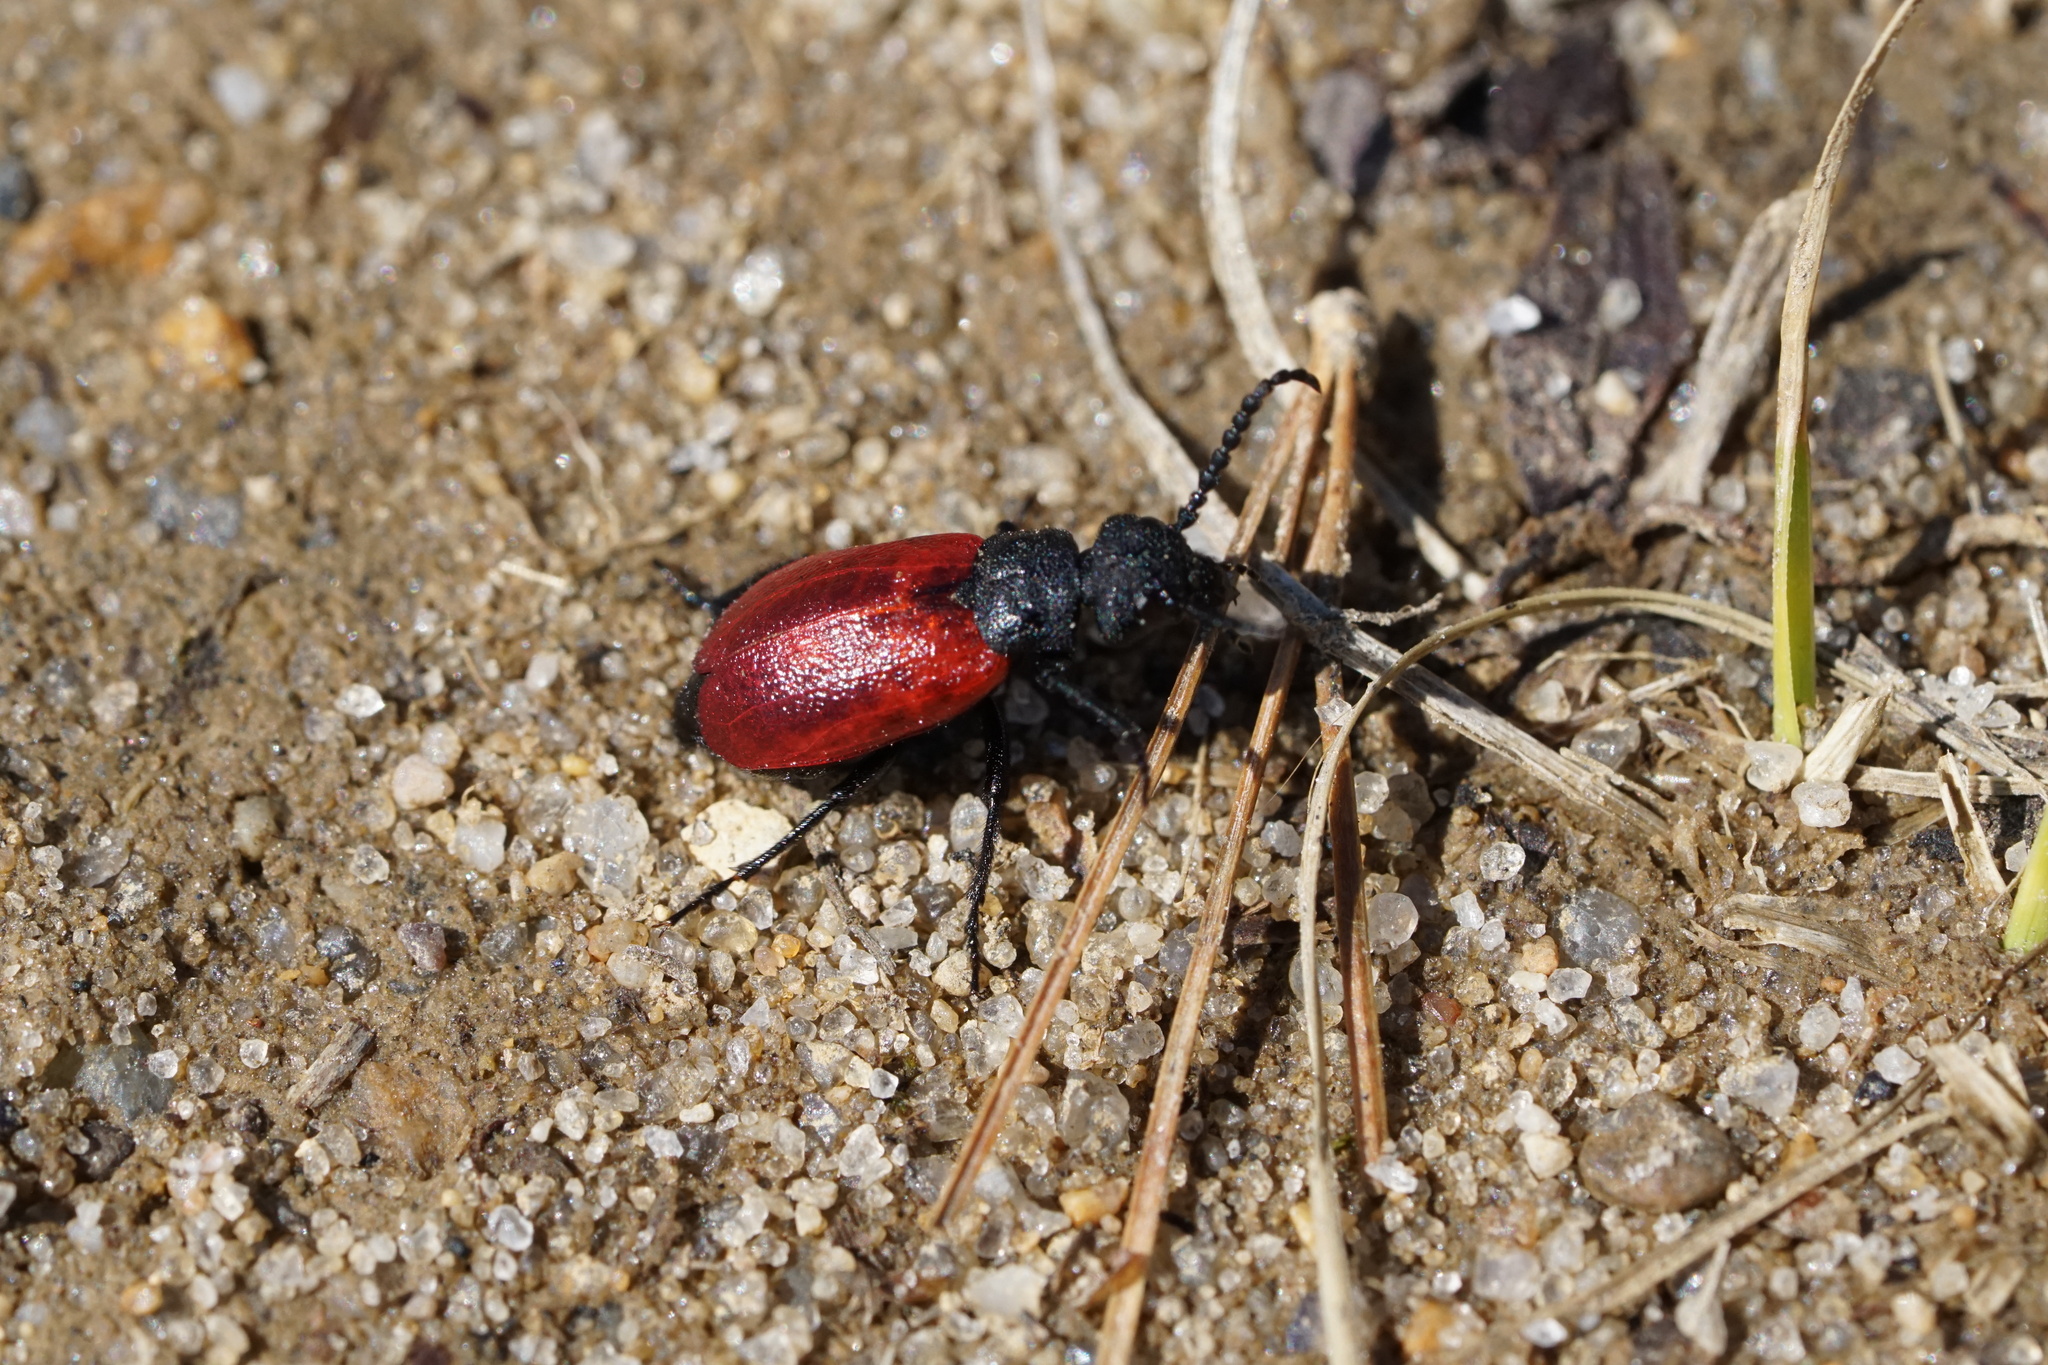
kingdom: Animalia
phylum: Arthropoda
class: Insecta
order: Coleoptera
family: Meloidae
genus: Tricrania
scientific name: Tricrania sanguinipennis
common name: Blood-winged blister beetle
